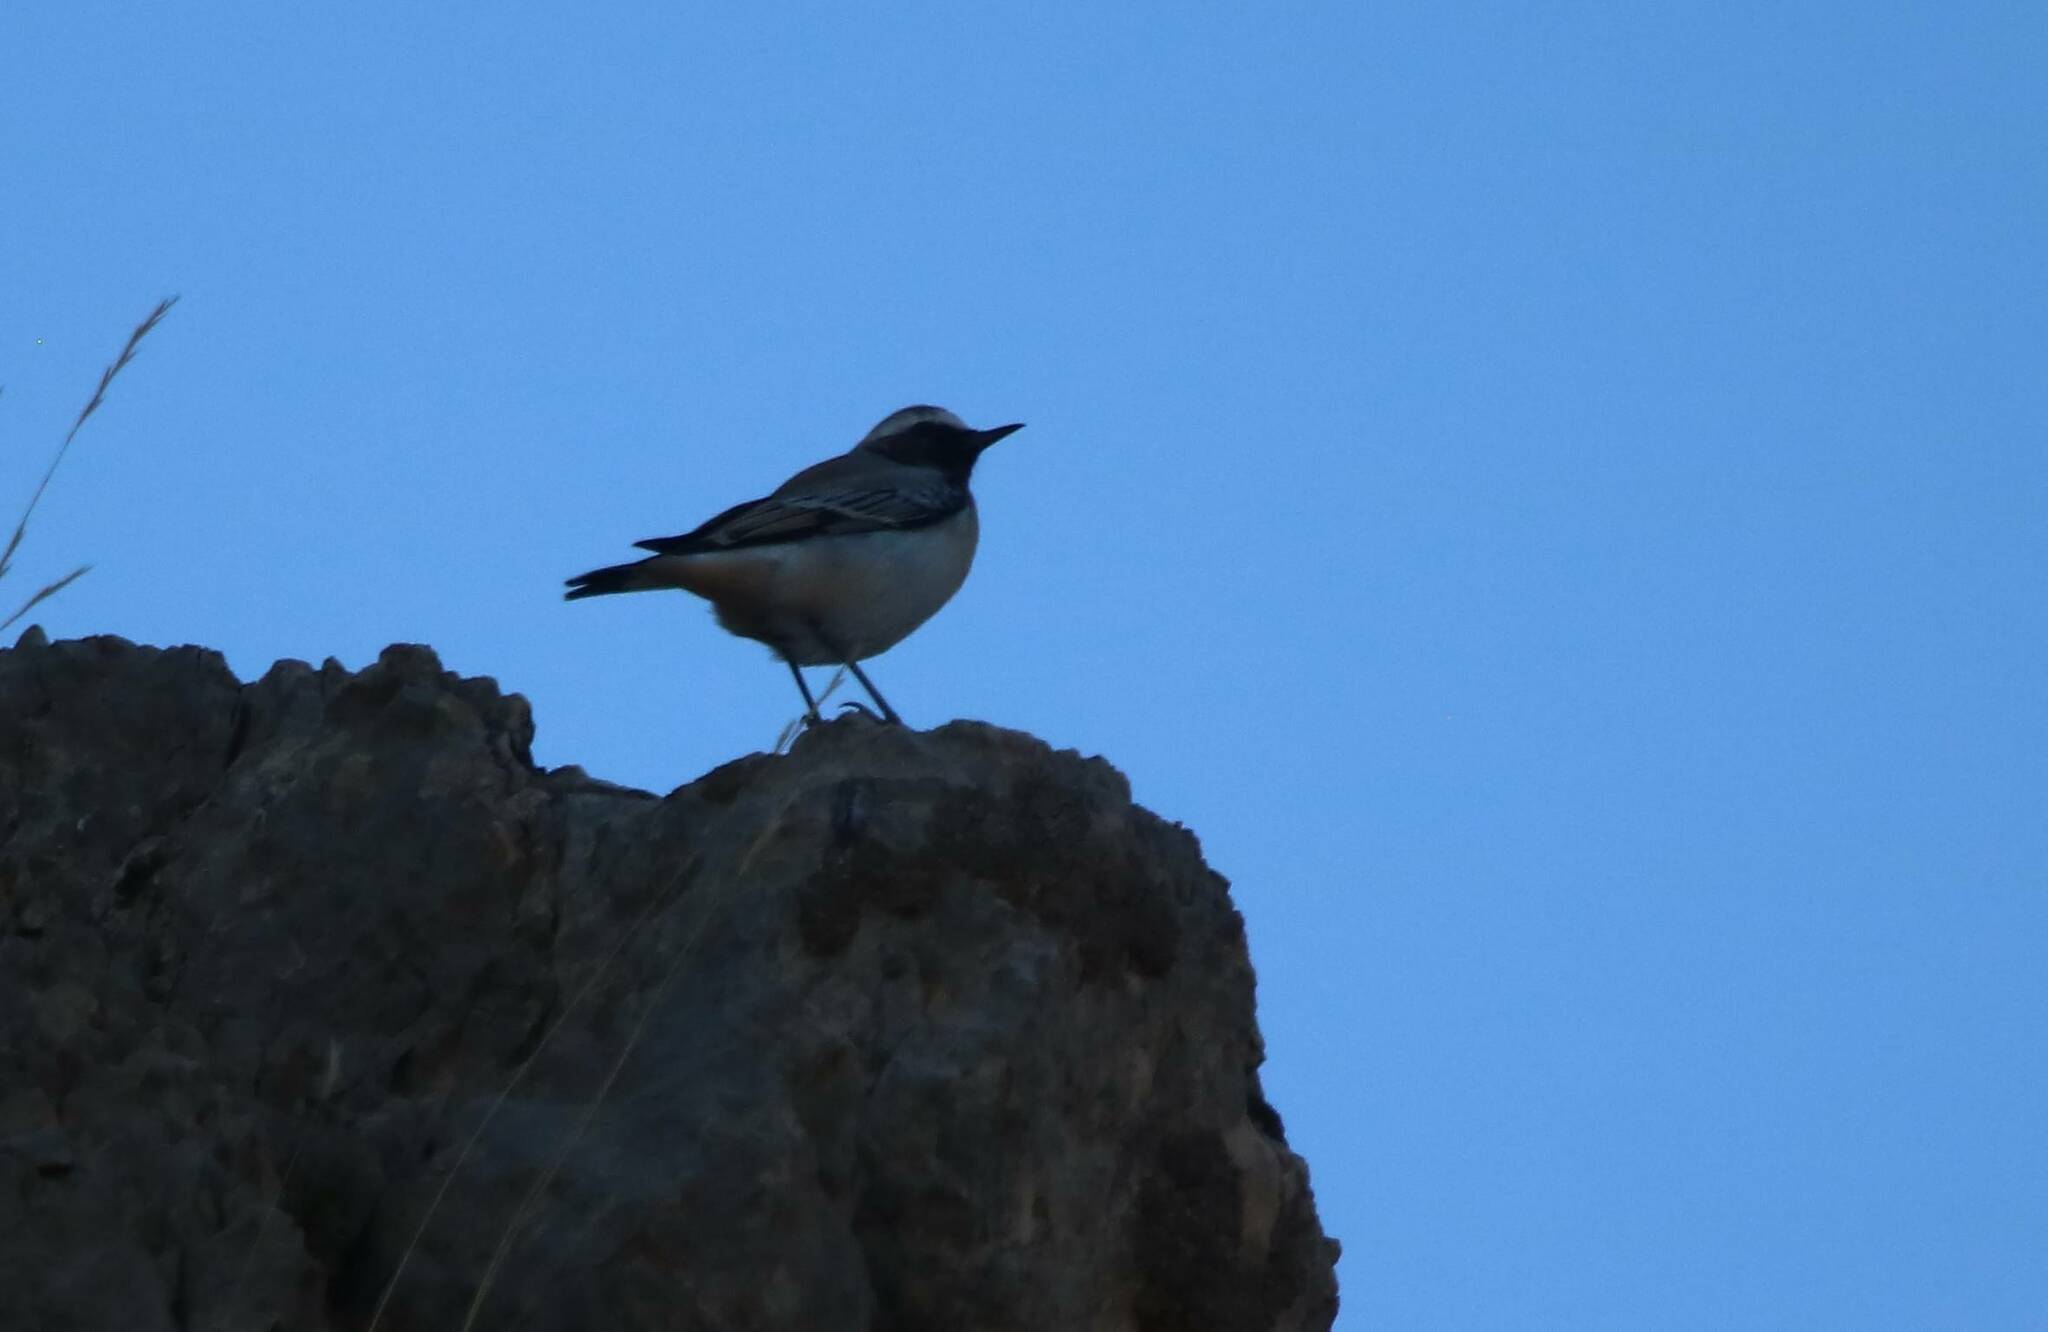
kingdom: Animalia
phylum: Chordata
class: Aves
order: Passeriformes
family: Muscicapidae
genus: Oenanthe
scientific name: Oenanthe oenanthe
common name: Northern wheatear
